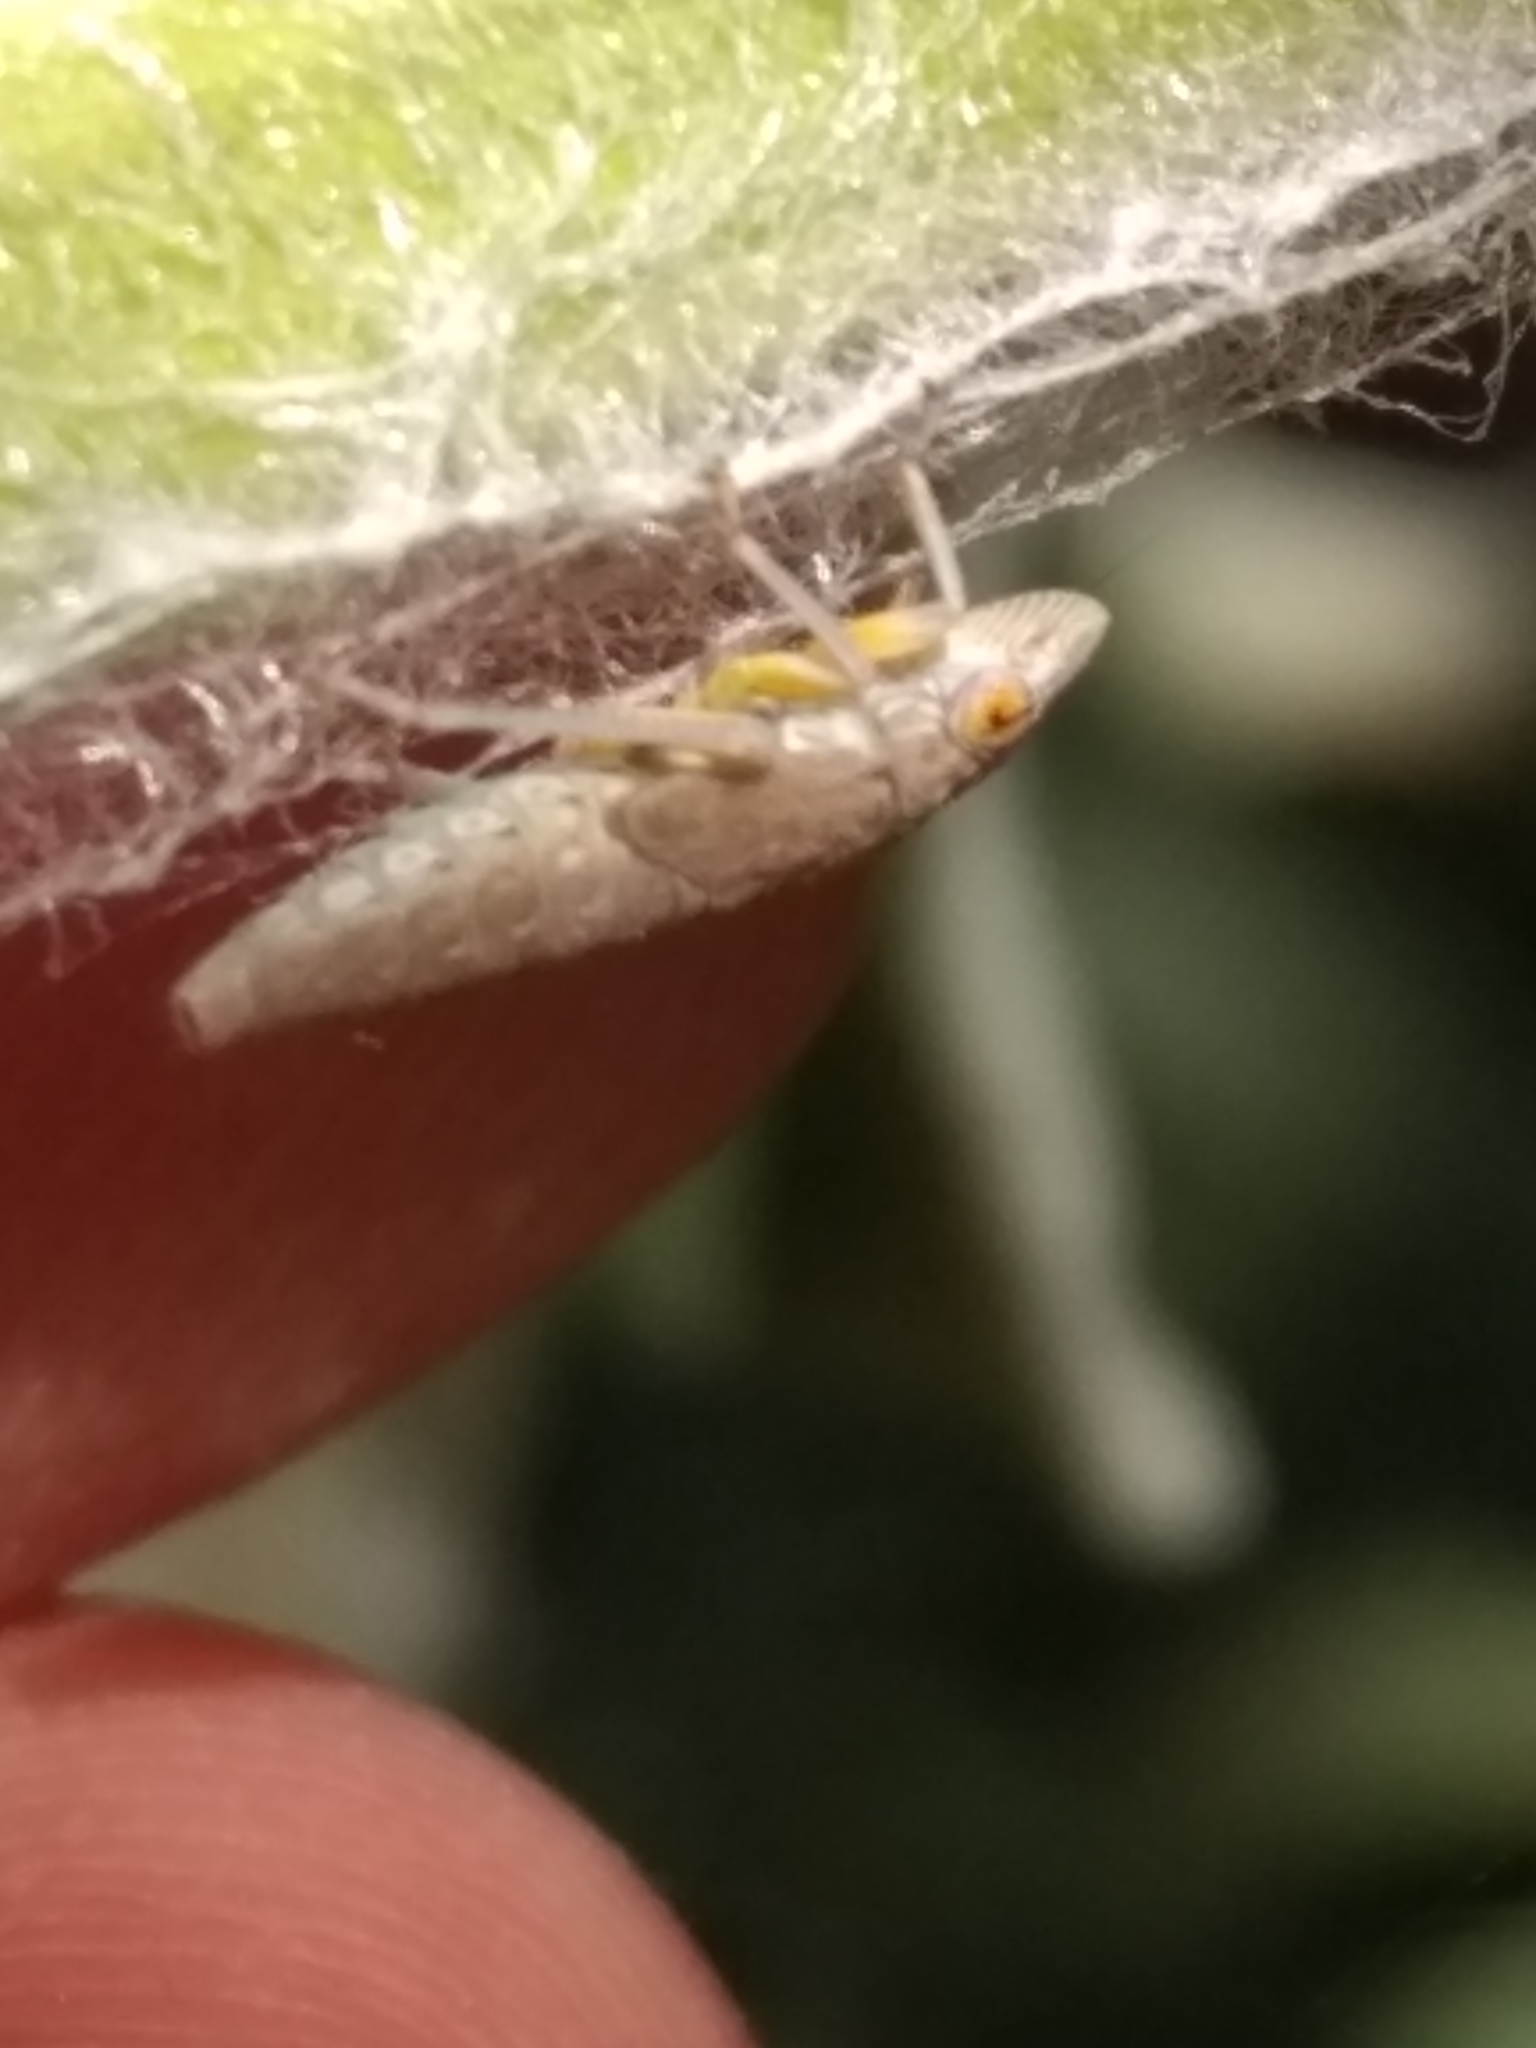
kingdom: Animalia
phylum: Arthropoda
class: Insecta
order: Hemiptera
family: Cicadellidae
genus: Homalodisca
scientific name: Homalodisca
